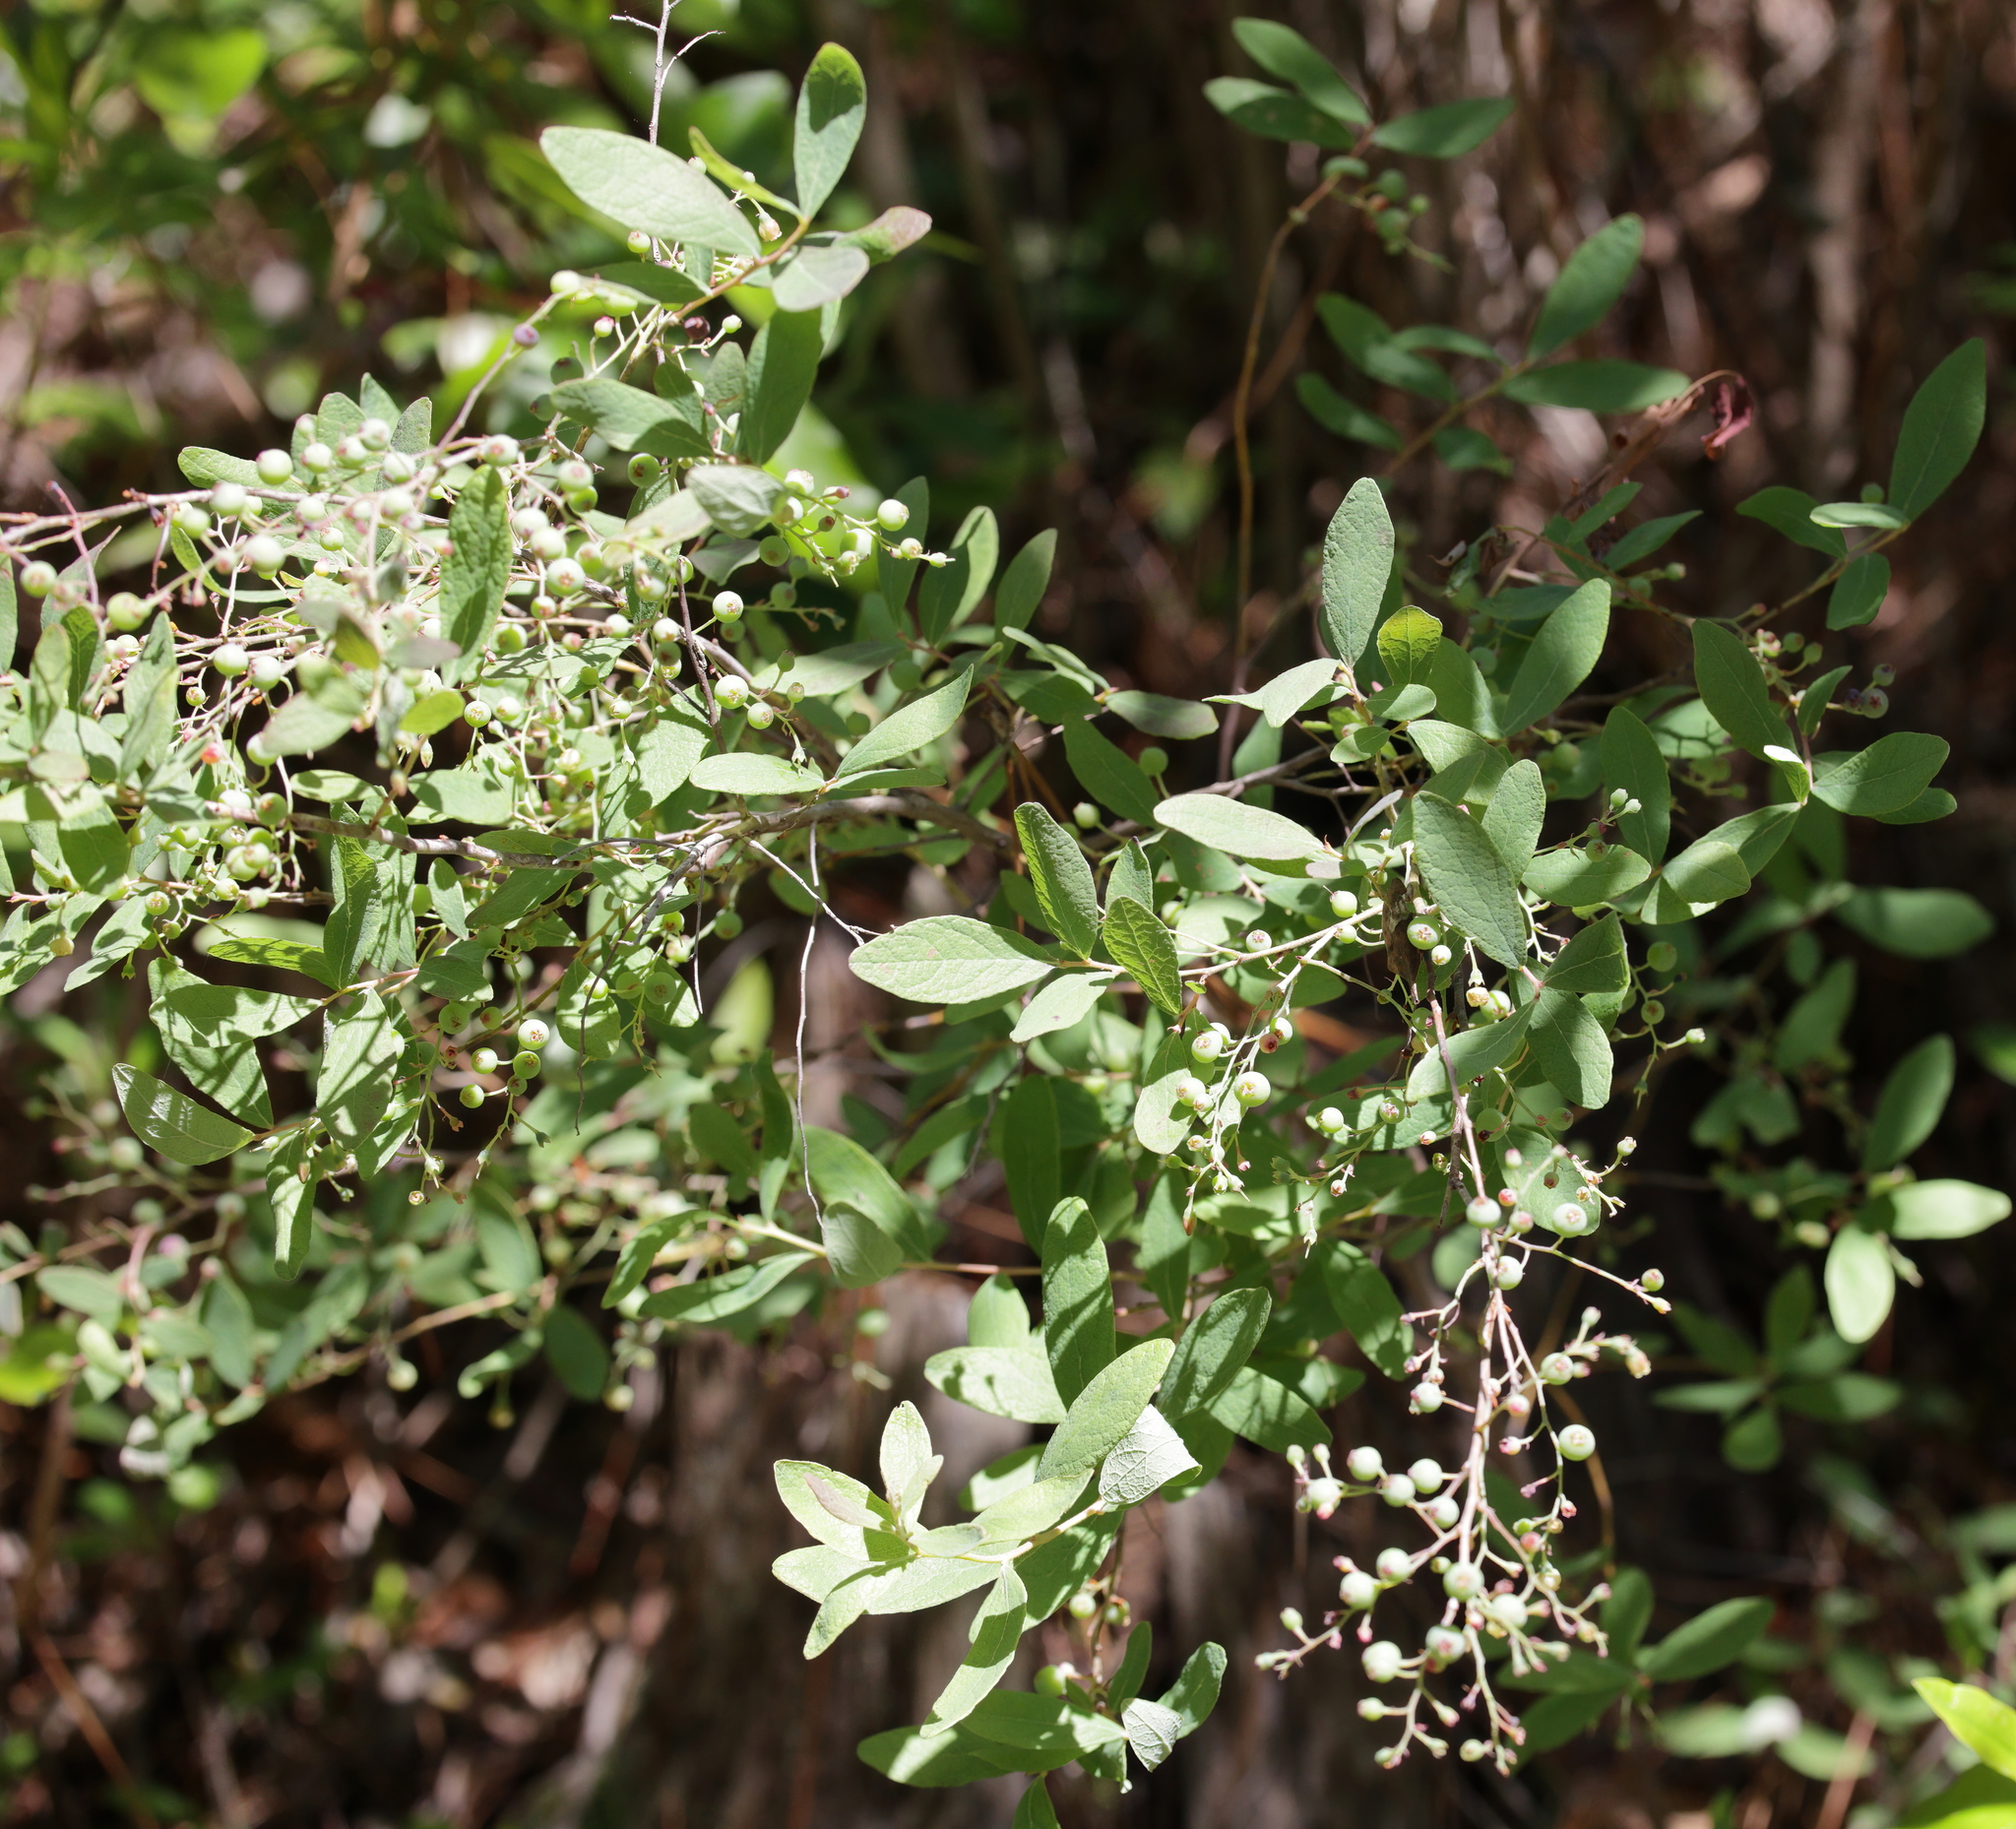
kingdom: Plantae
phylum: Tracheophyta
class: Magnoliopsida
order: Ericales
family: Ericaceae
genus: Gaylussacia
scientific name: Gaylussacia nana
